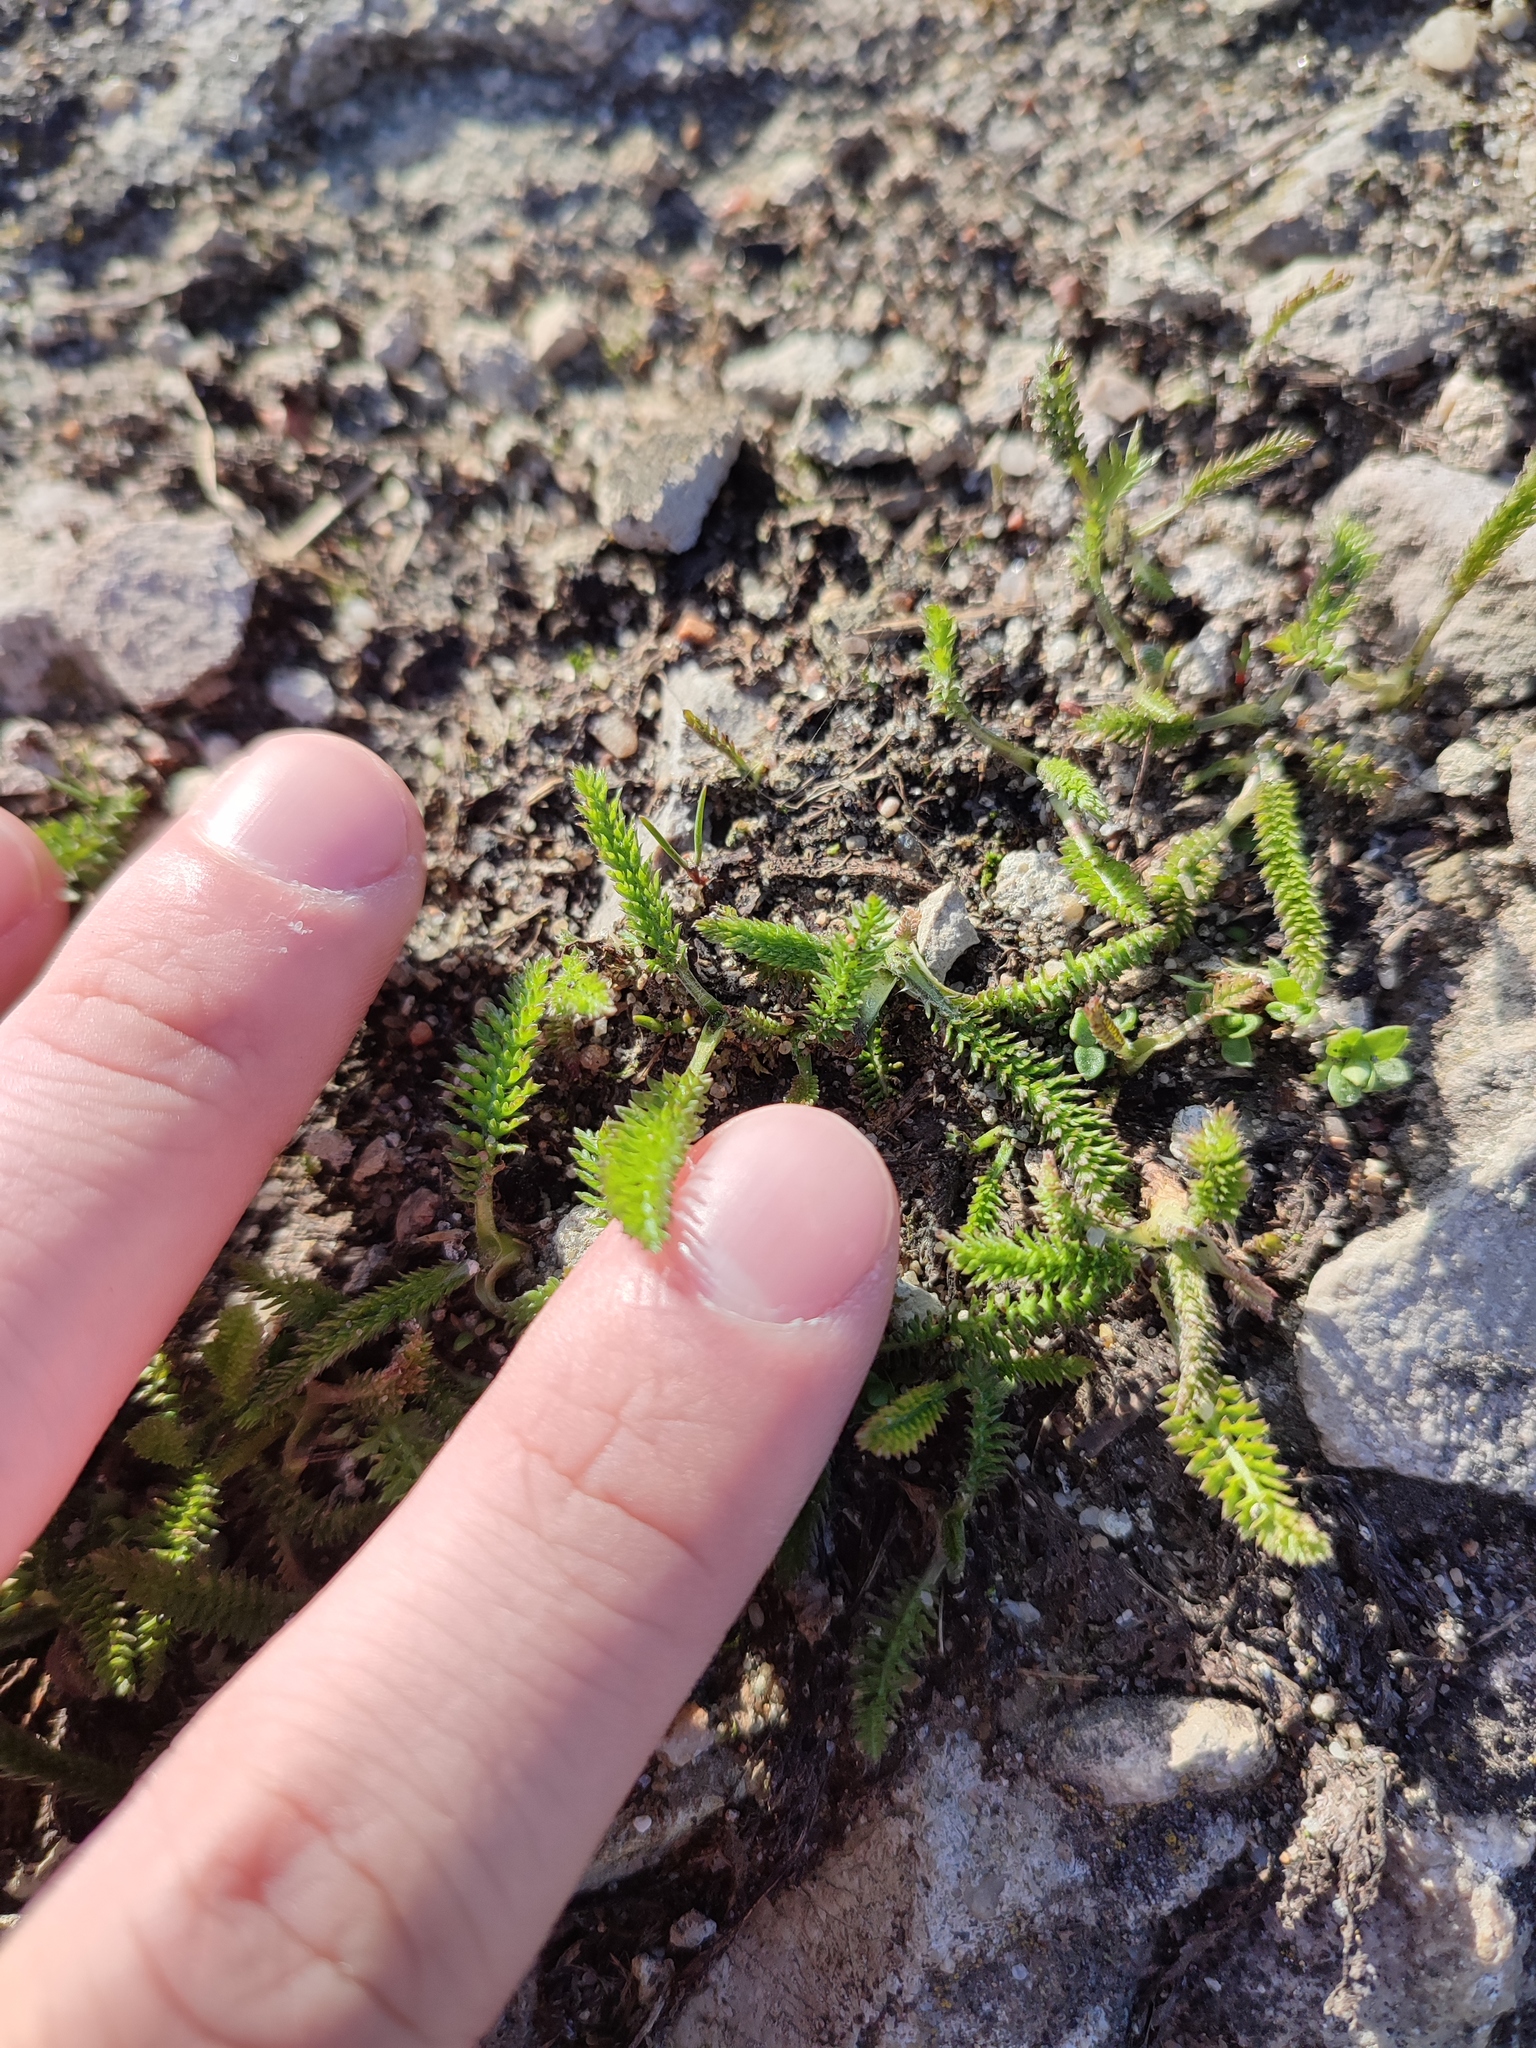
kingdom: Plantae
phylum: Tracheophyta
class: Magnoliopsida
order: Asterales
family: Asteraceae
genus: Achillea
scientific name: Achillea millefolium
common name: Yarrow
